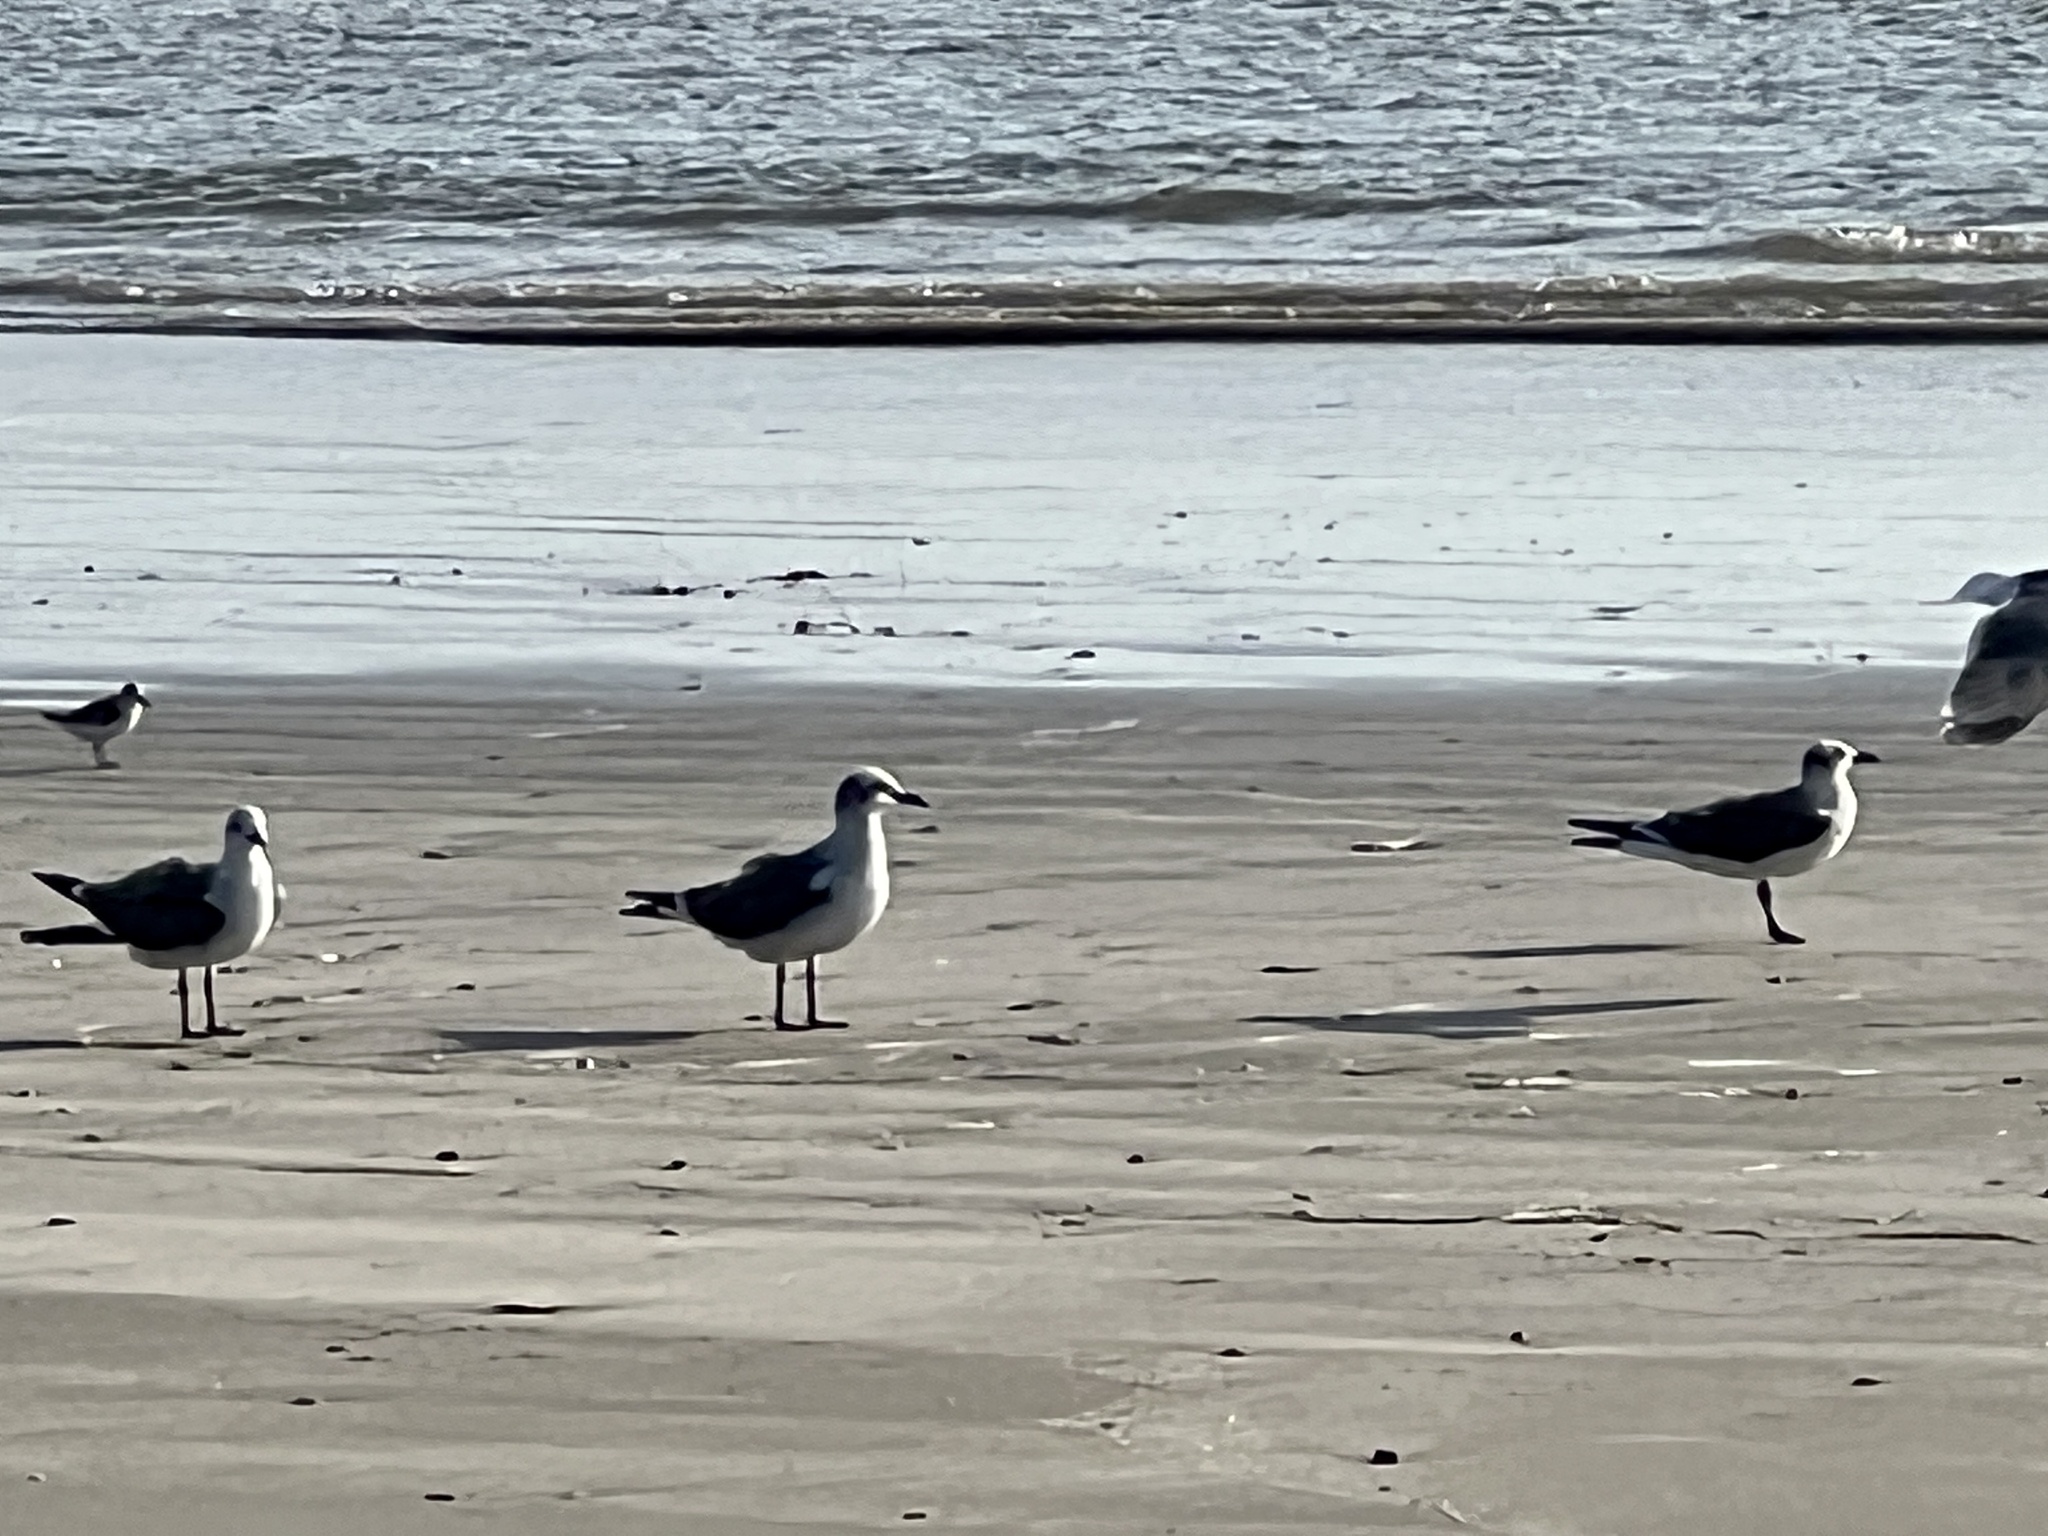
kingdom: Animalia
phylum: Chordata
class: Aves
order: Charadriiformes
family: Laridae
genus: Leucophaeus
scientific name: Leucophaeus atricilla
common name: Laughing gull
